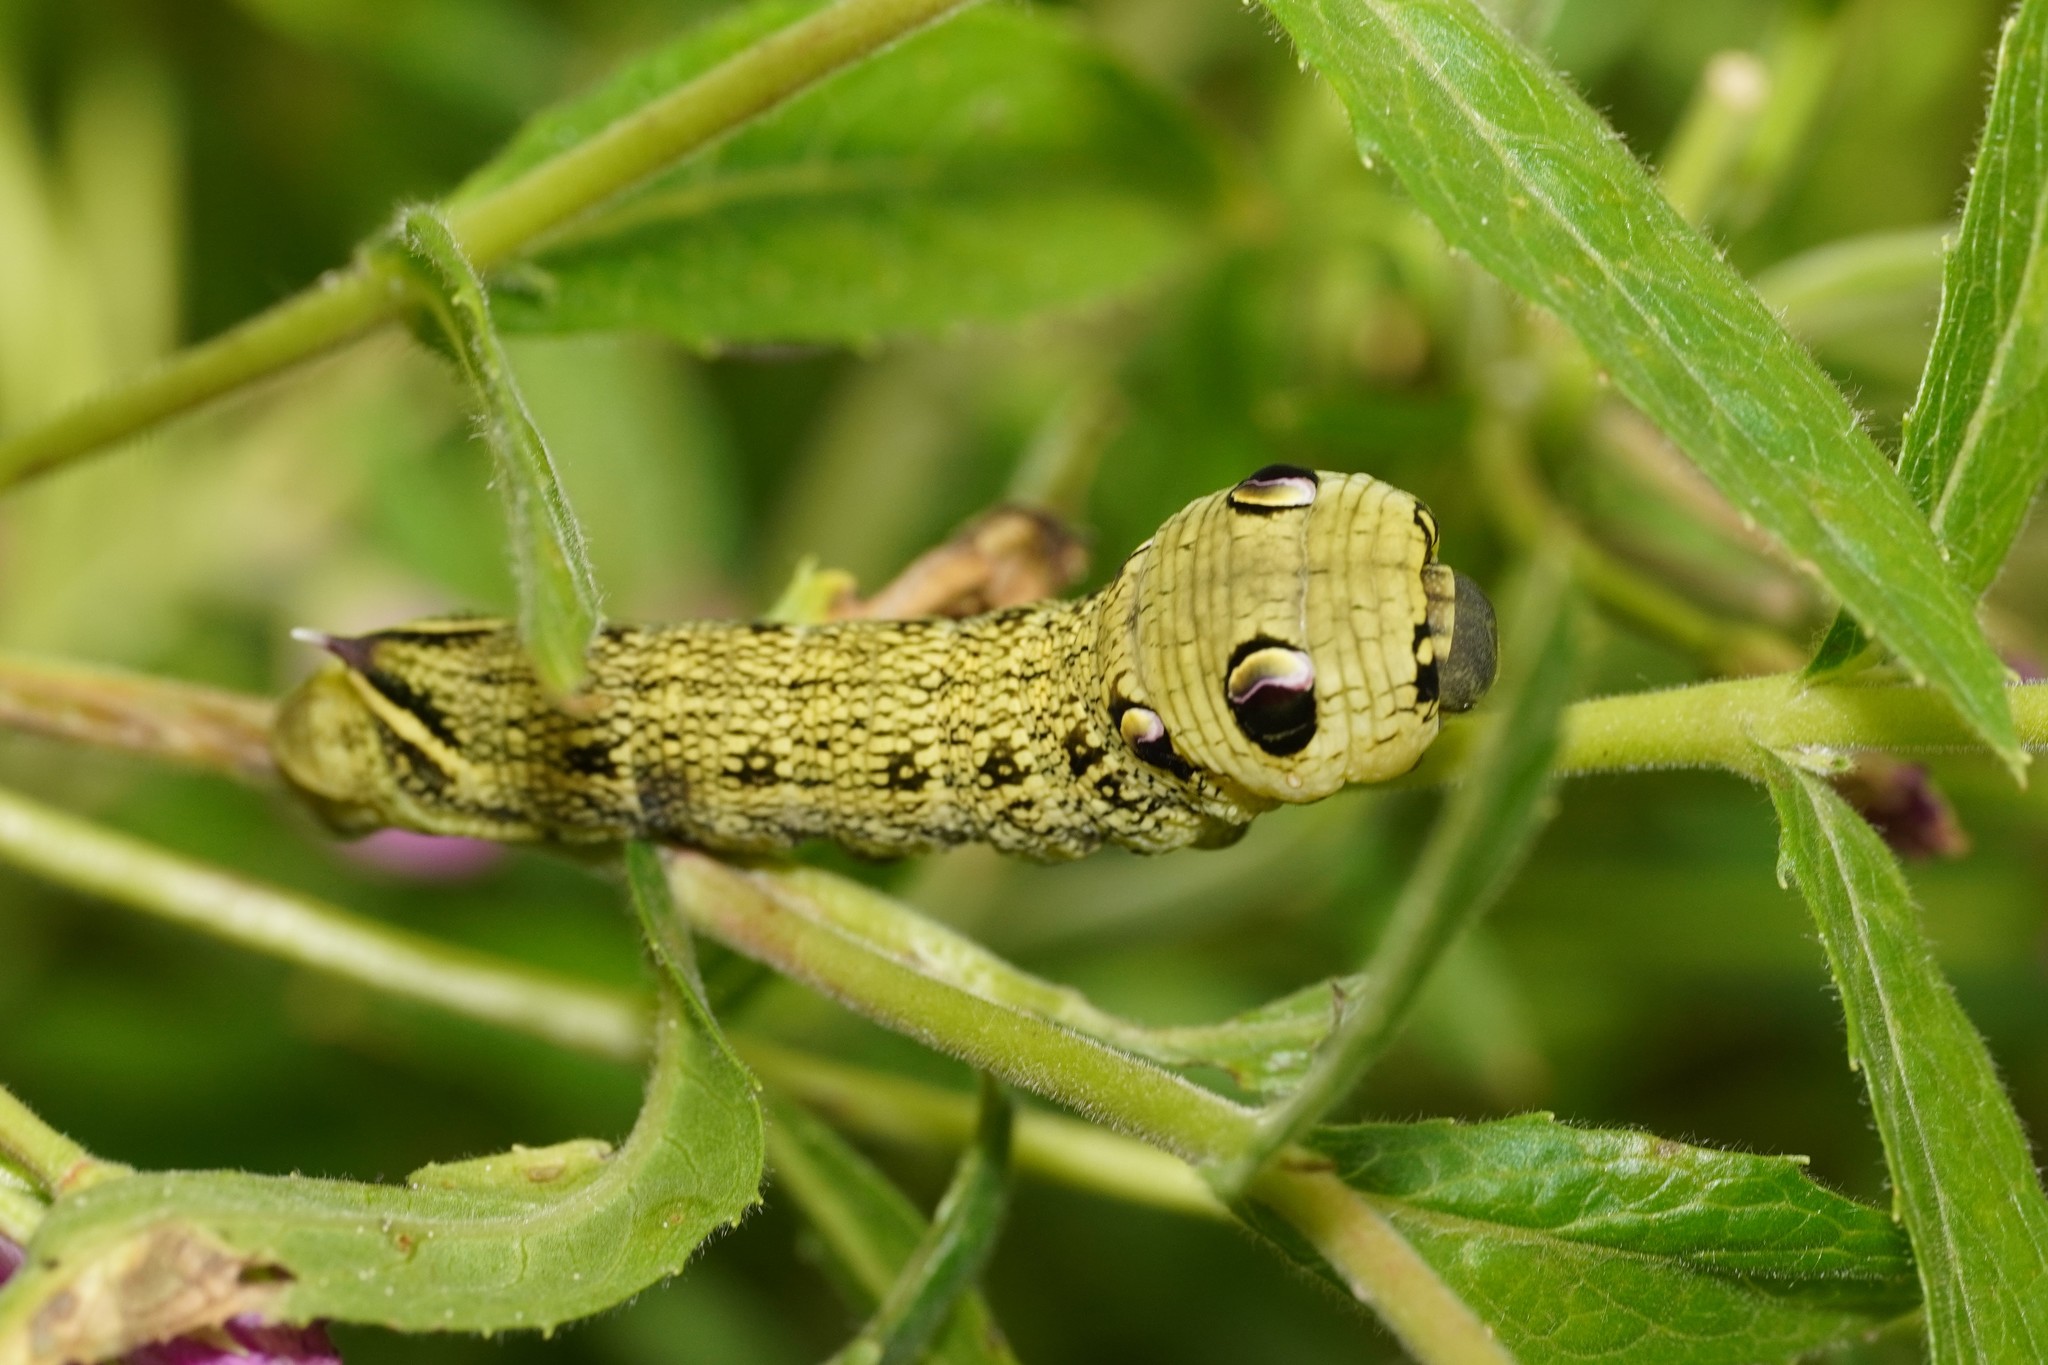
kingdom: Animalia
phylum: Arthropoda
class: Insecta
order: Lepidoptera
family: Sphingidae
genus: Deilephila
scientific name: Deilephila elpenor
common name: Elephant hawk-moth
